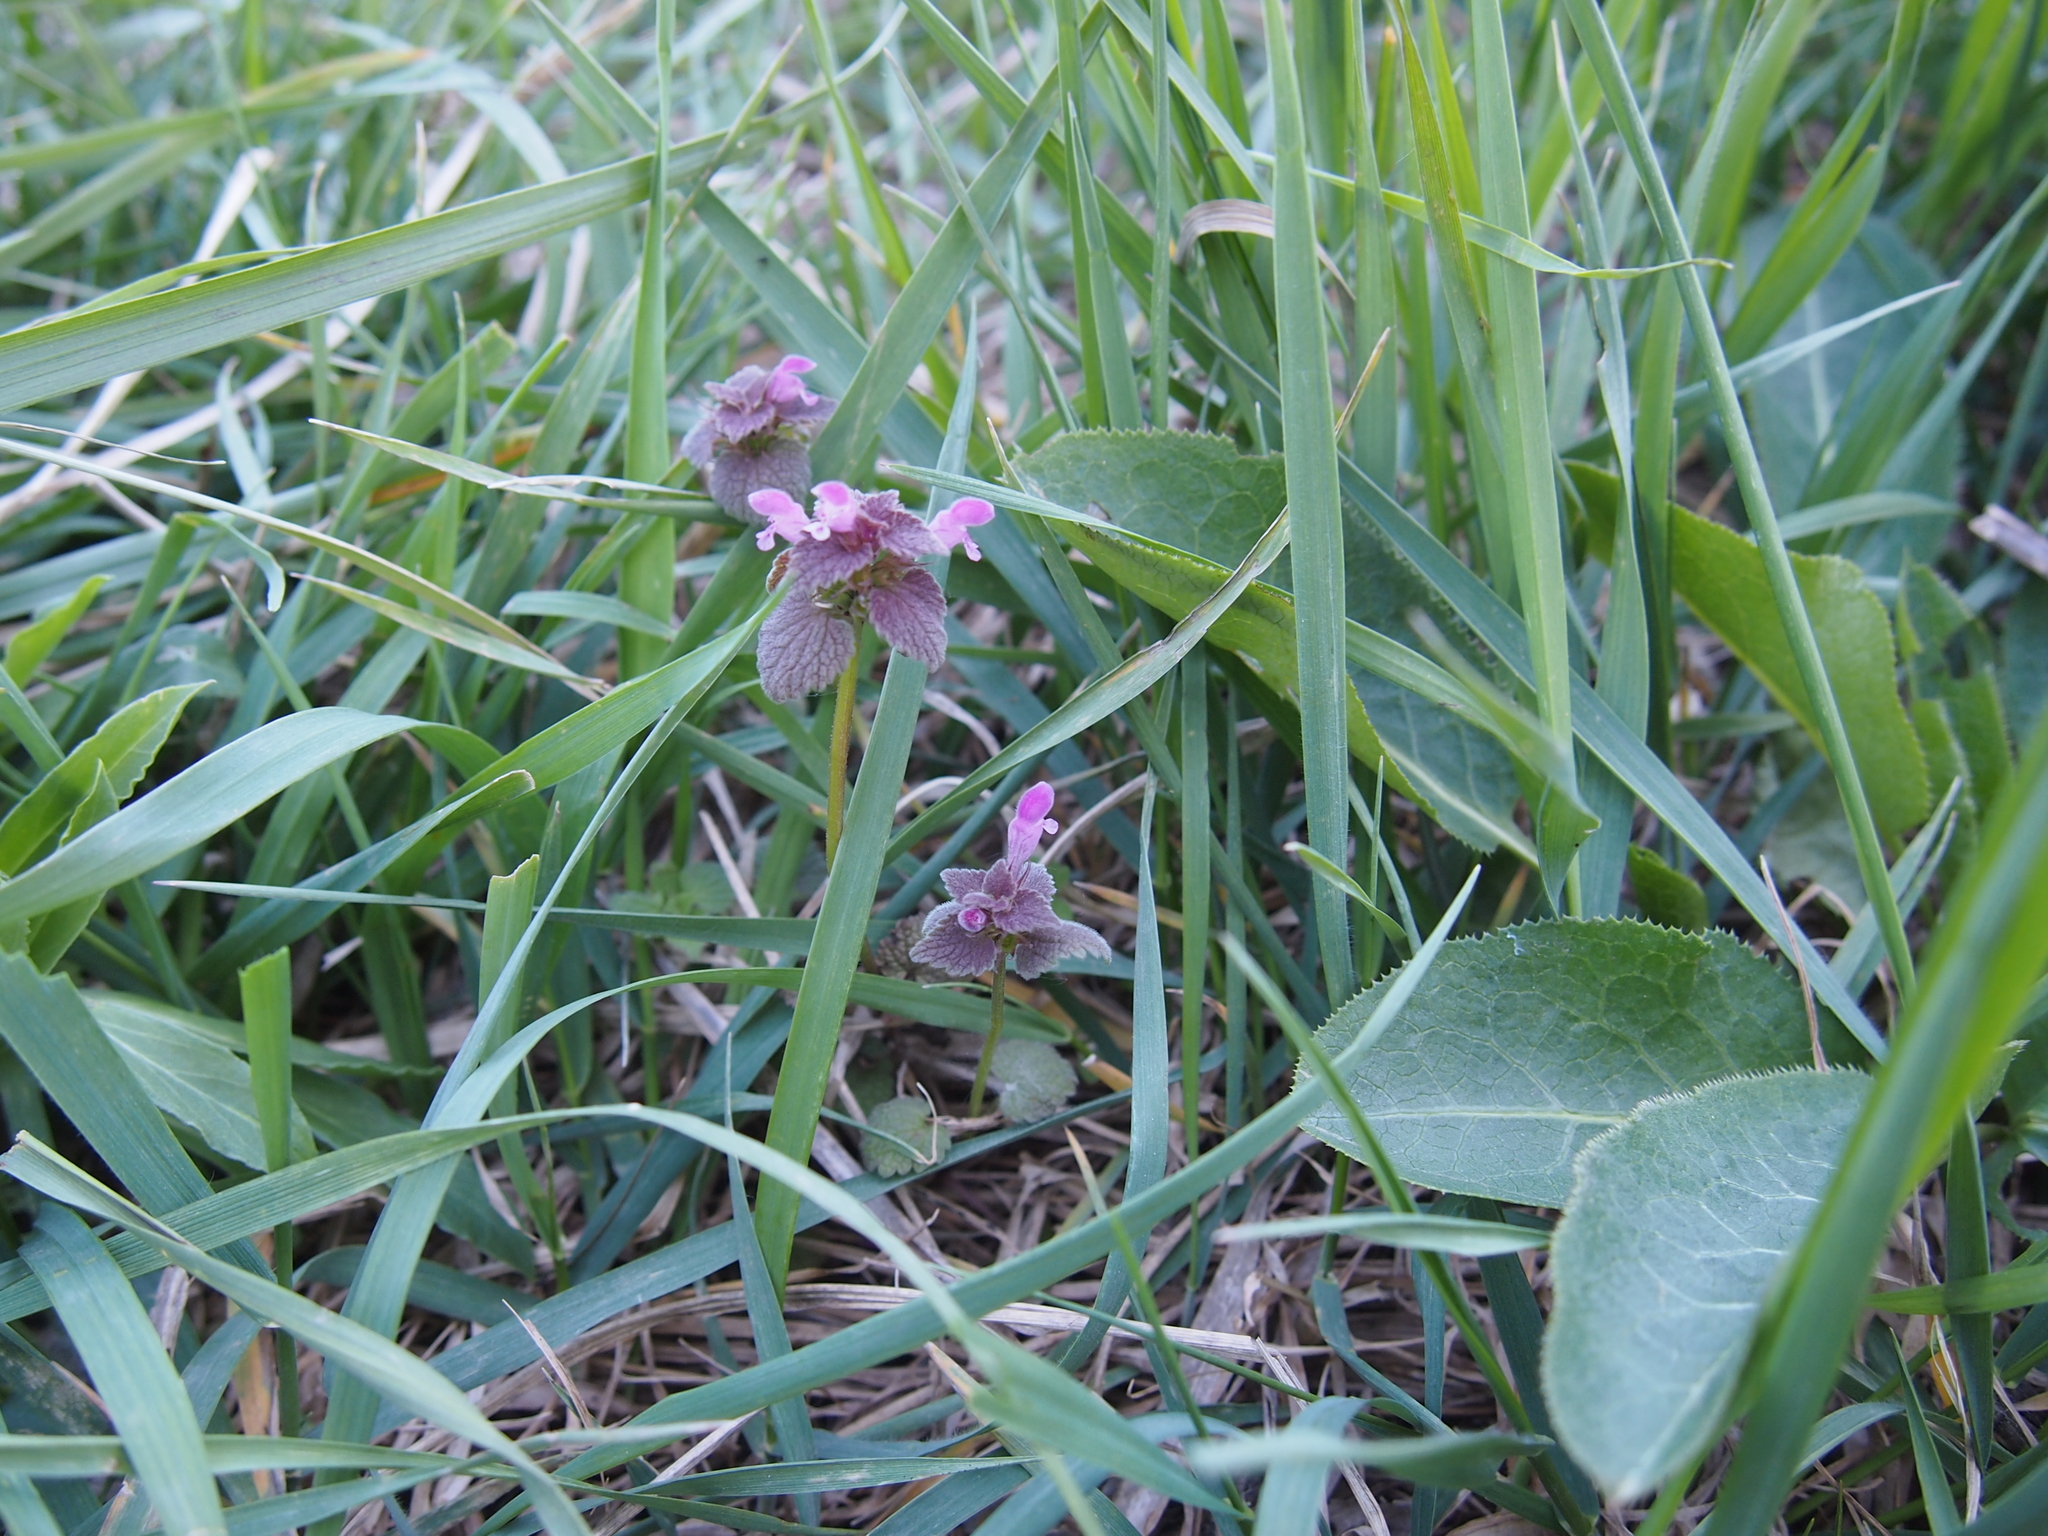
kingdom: Plantae
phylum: Tracheophyta
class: Magnoliopsida
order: Lamiales
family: Lamiaceae
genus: Lamium
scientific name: Lamium purpureum
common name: Red dead-nettle
